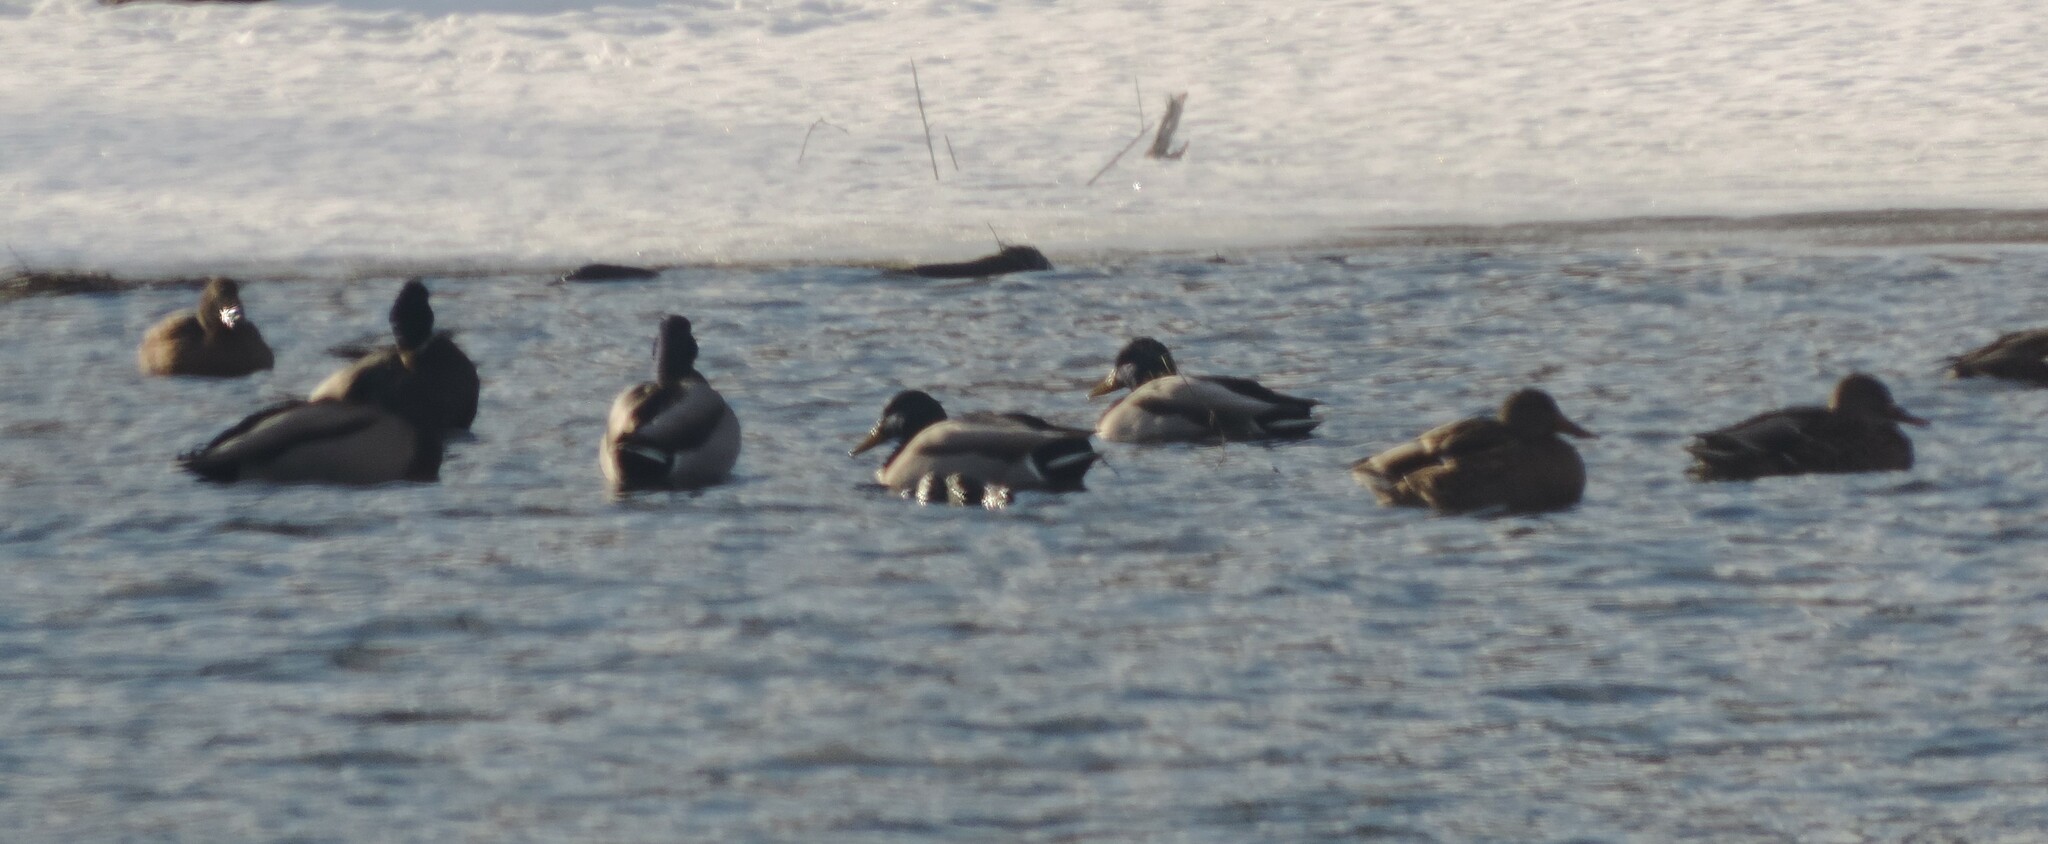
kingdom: Animalia
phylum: Chordata
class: Aves
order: Anseriformes
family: Anatidae
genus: Anas
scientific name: Anas platyrhynchos
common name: Mallard
